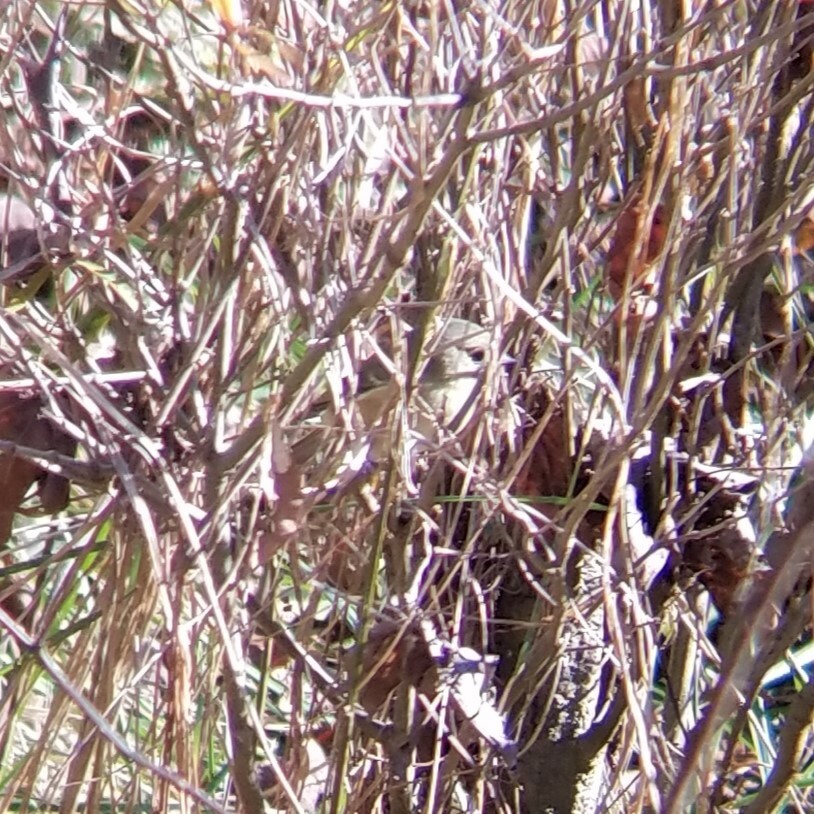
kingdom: Animalia
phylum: Chordata
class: Aves
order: Passeriformes
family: Regulidae
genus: Regulus
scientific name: Regulus calendula
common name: Ruby-crowned kinglet
